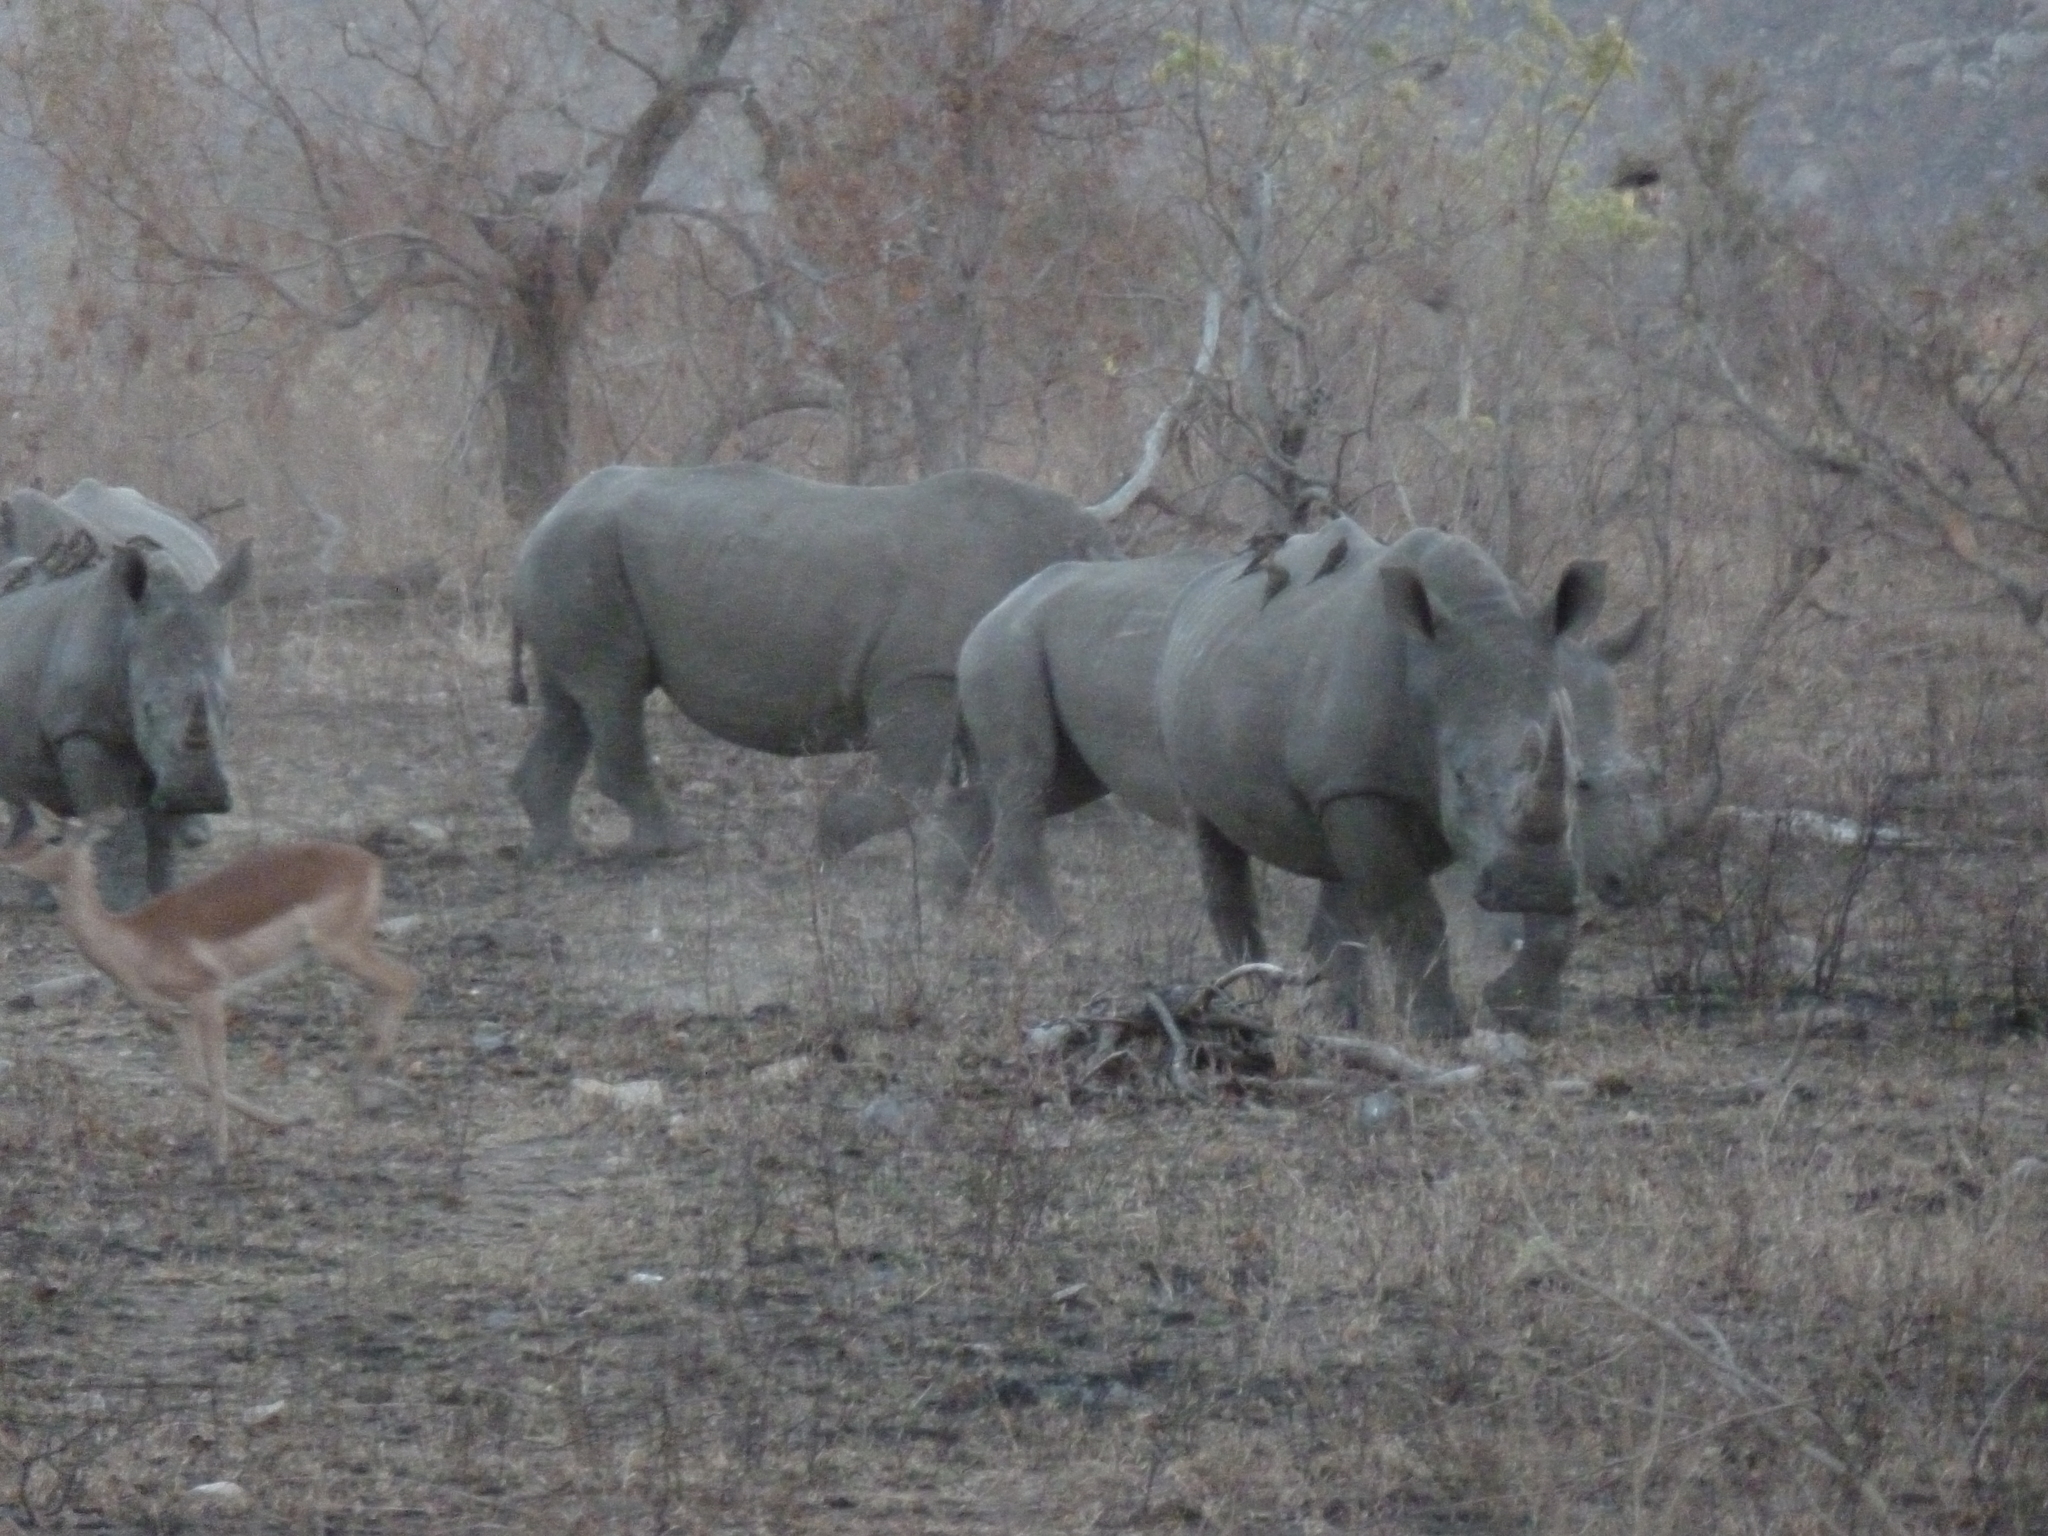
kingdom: Animalia
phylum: Chordata
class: Mammalia
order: Perissodactyla
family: Rhinocerotidae
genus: Ceratotherium
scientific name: Ceratotherium simum
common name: White rhinoceros
